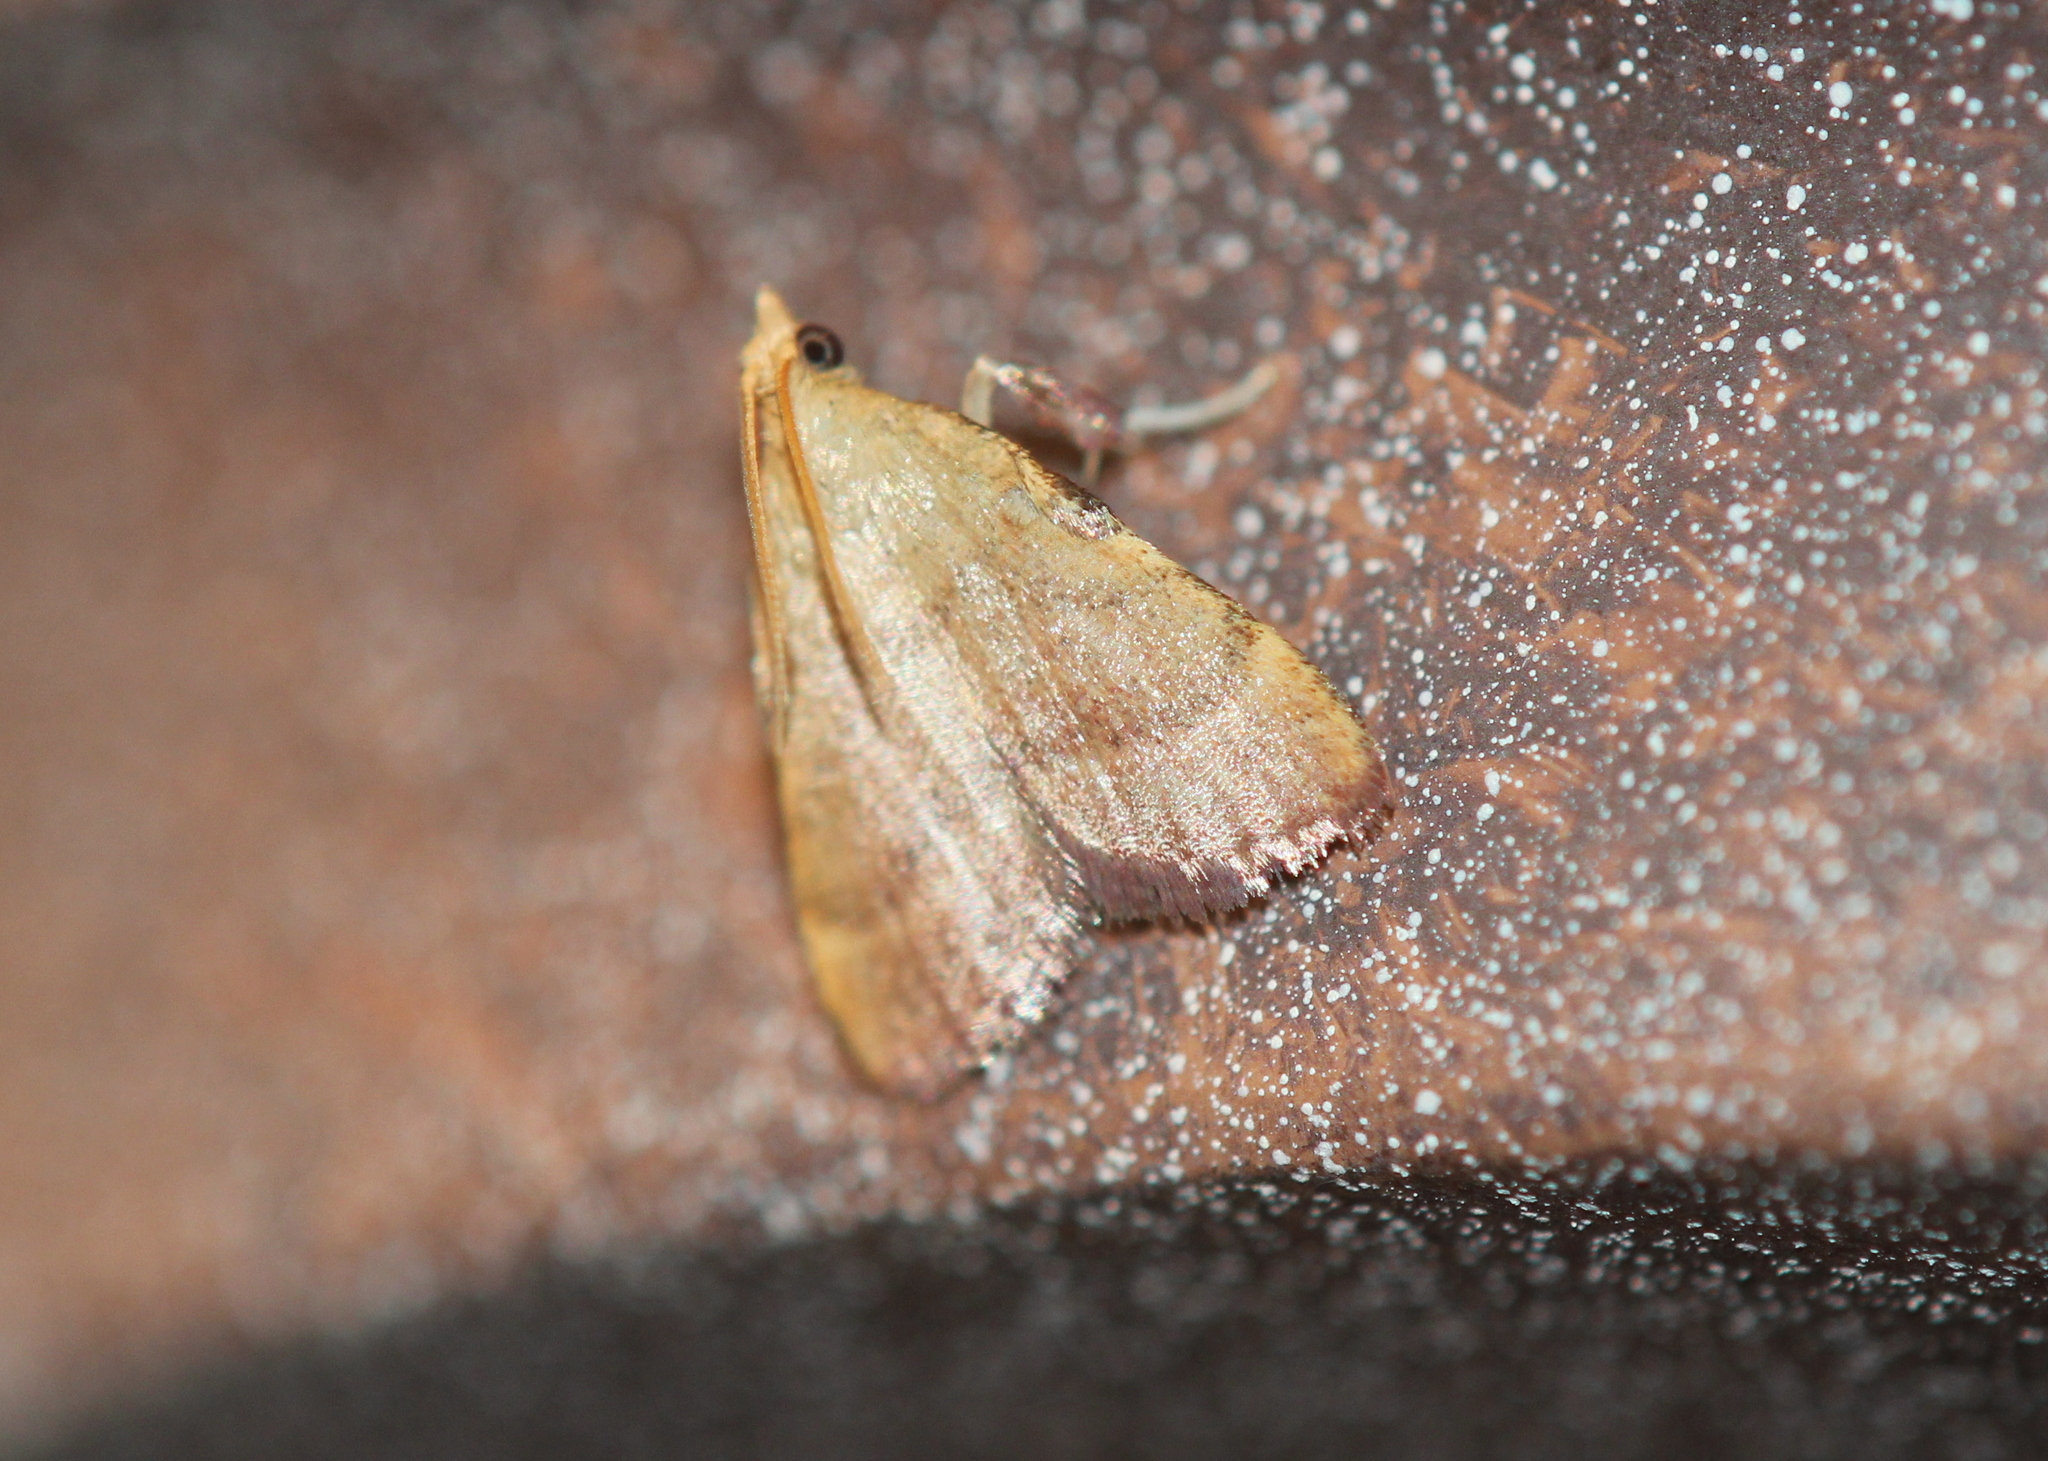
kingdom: Animalia
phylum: Arthropoda
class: Insecta
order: Lepidoptera
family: Pyralidae
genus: Condylolomia
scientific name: Condylolomia participialis
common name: Drab condylolomia moth
